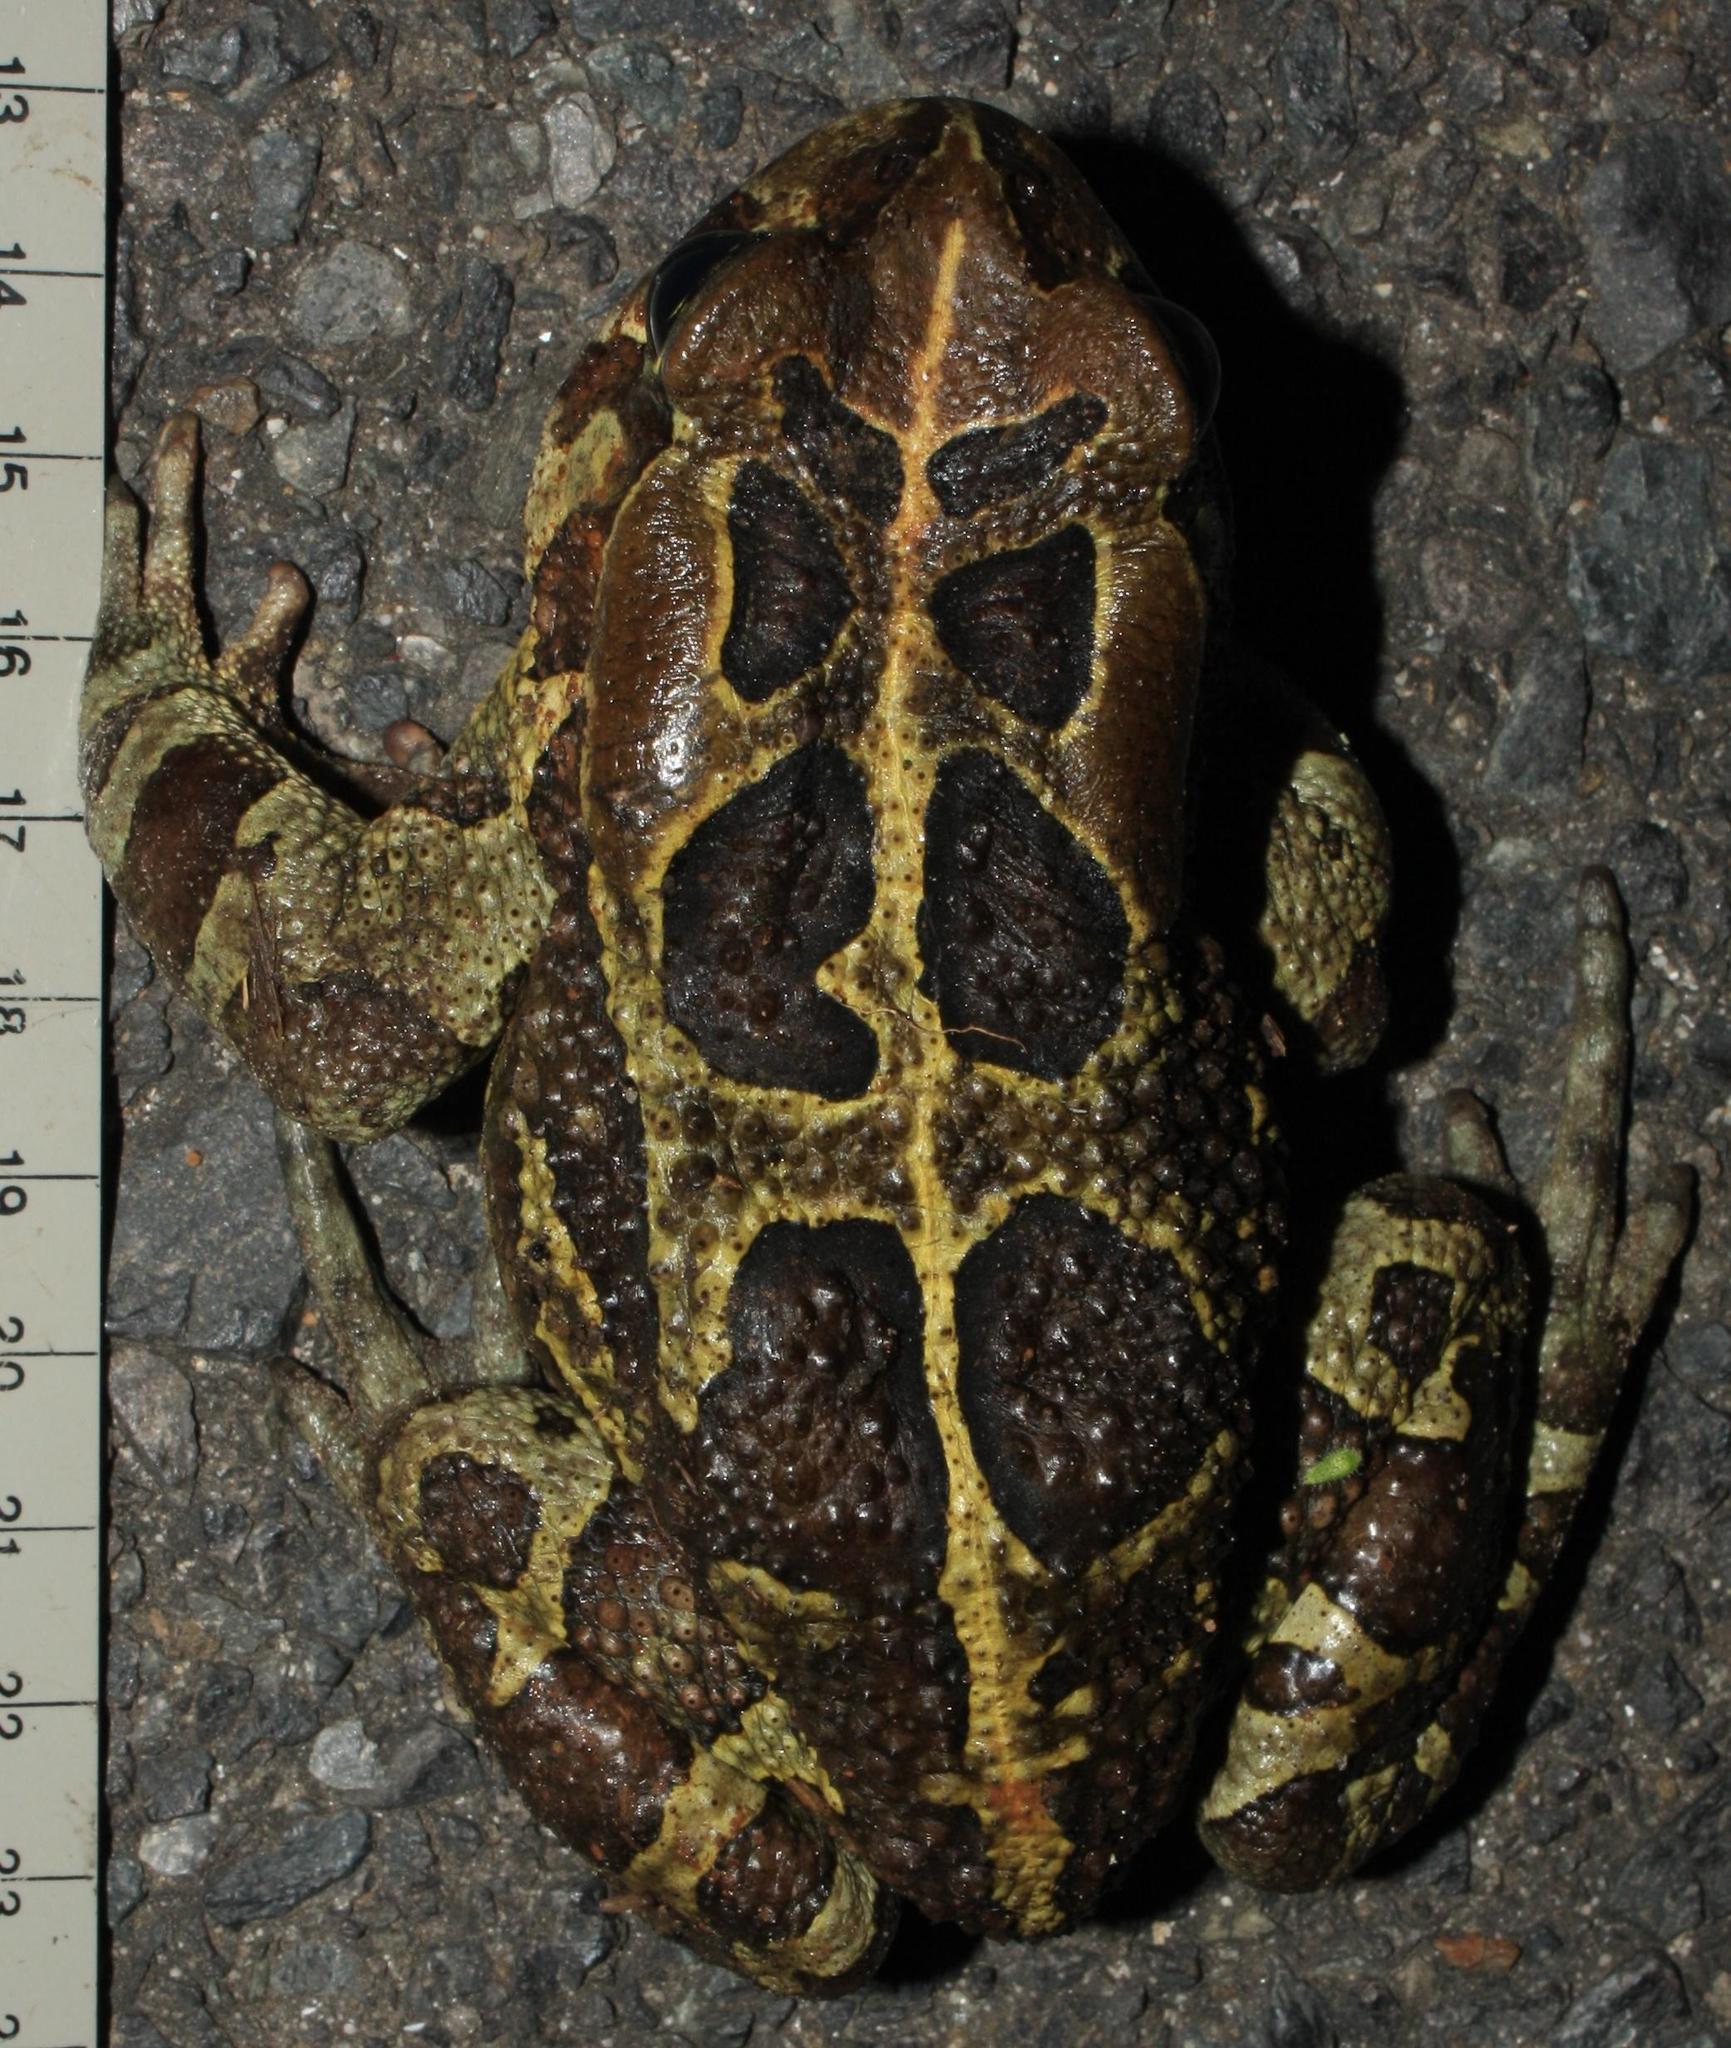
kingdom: Animalia
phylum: Chordata
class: Amphibia
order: Anura
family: Bufonidae
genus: Sclerophrys
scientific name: Sclerophrys pantherina
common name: Panther toad
